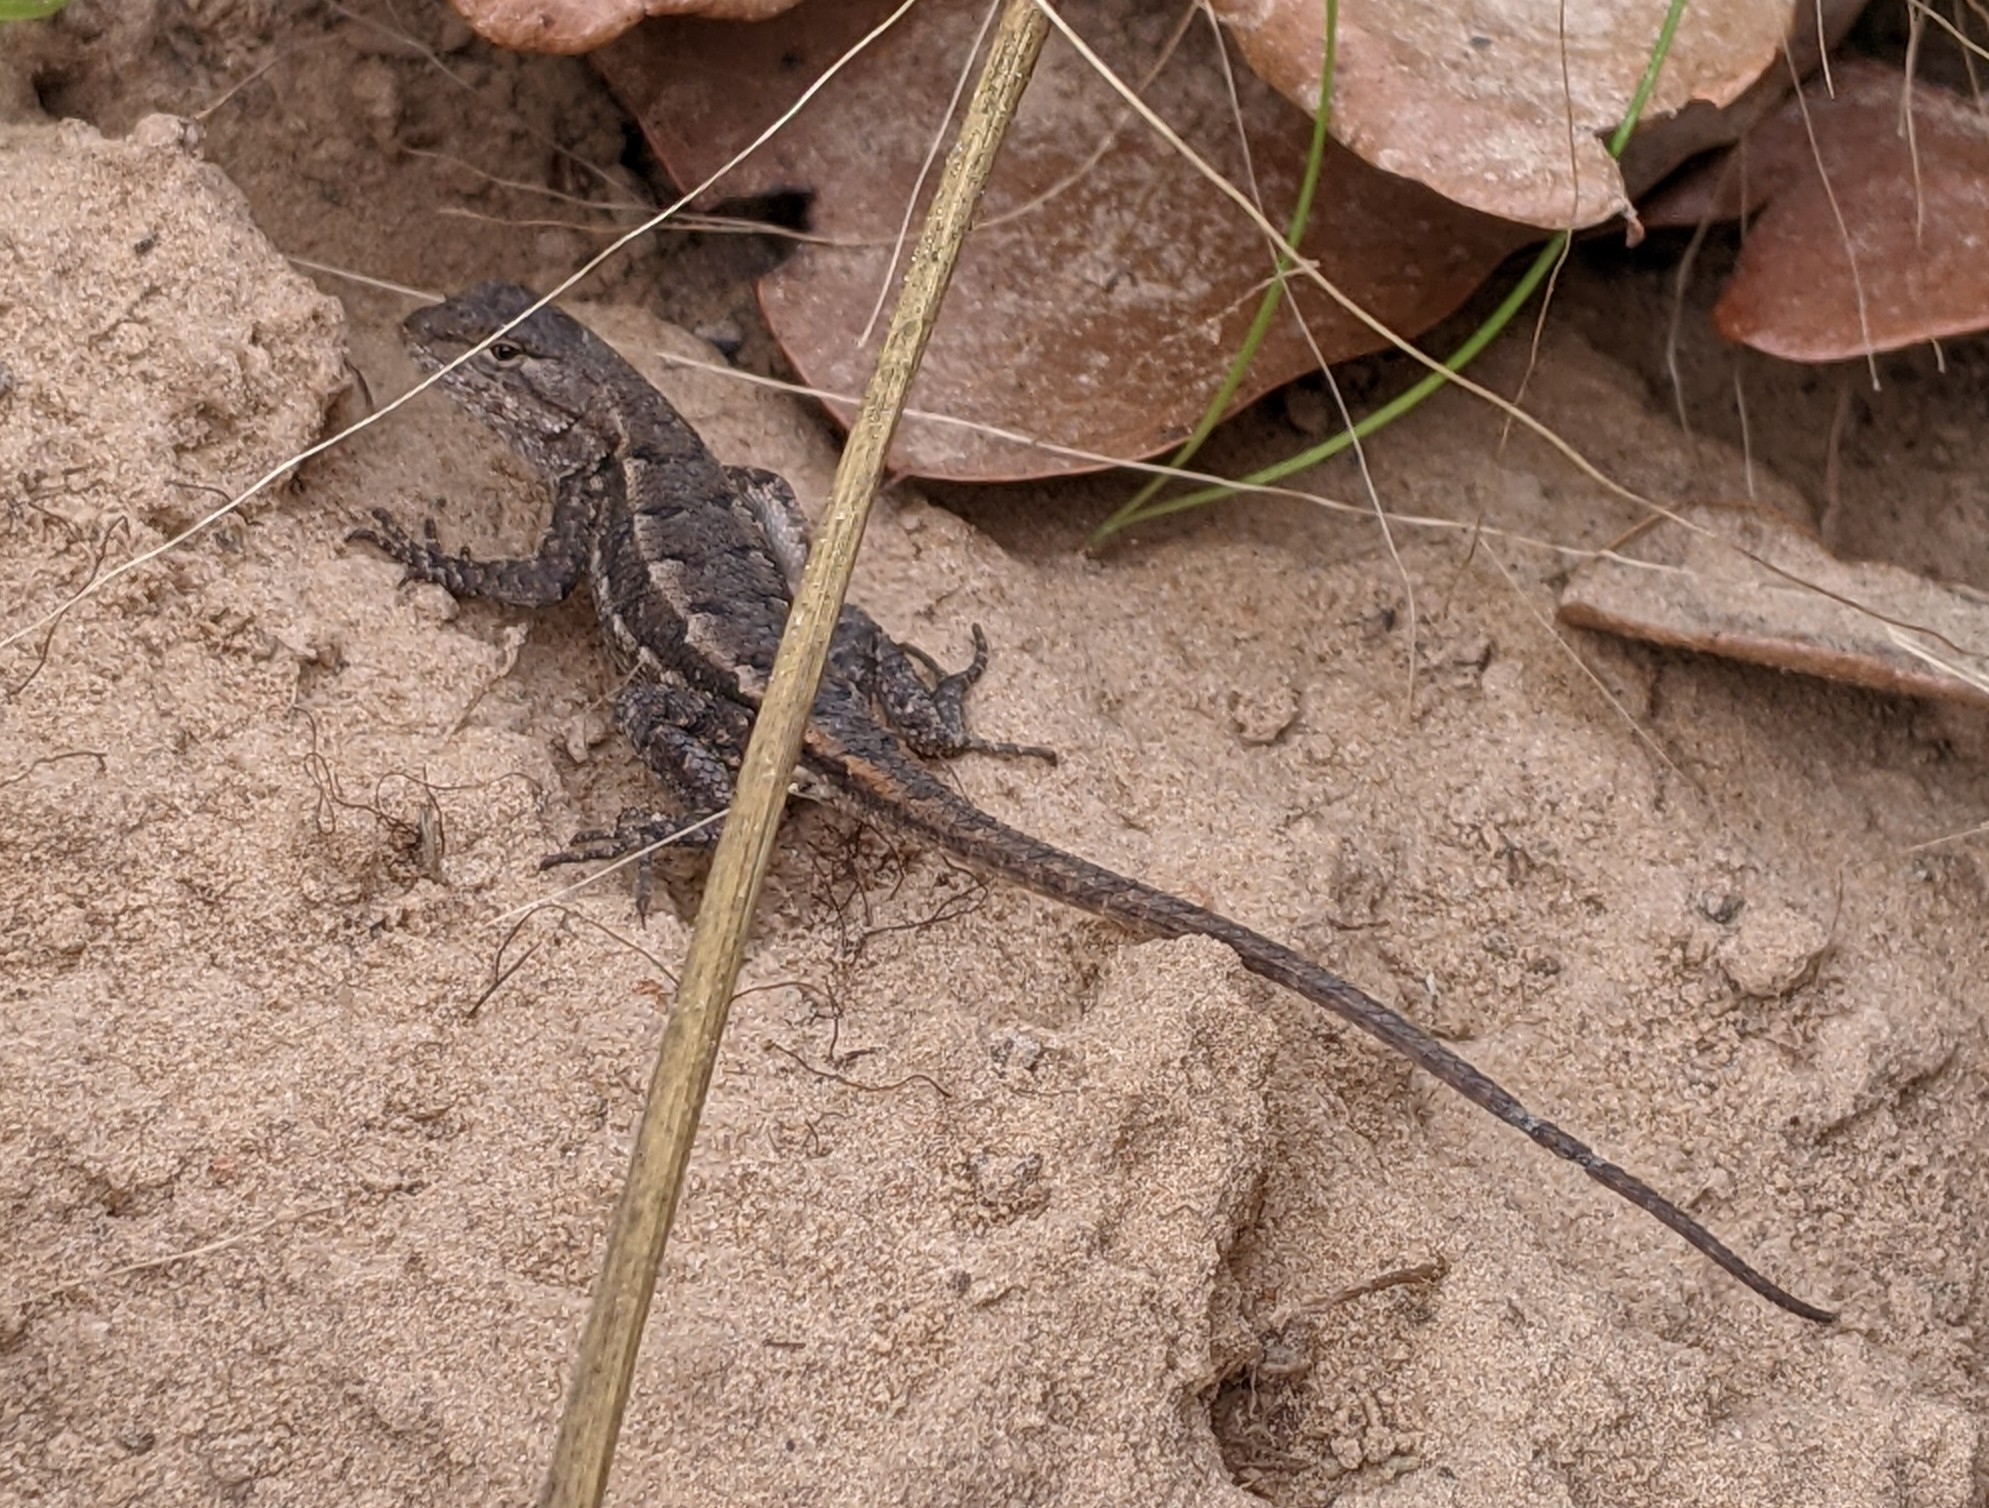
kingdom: Animalia
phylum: Chordata
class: Squamata
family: Phrynosomatidae
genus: Sceloporus
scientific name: Sceloporus consobrinus
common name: Southern prairie lizard
